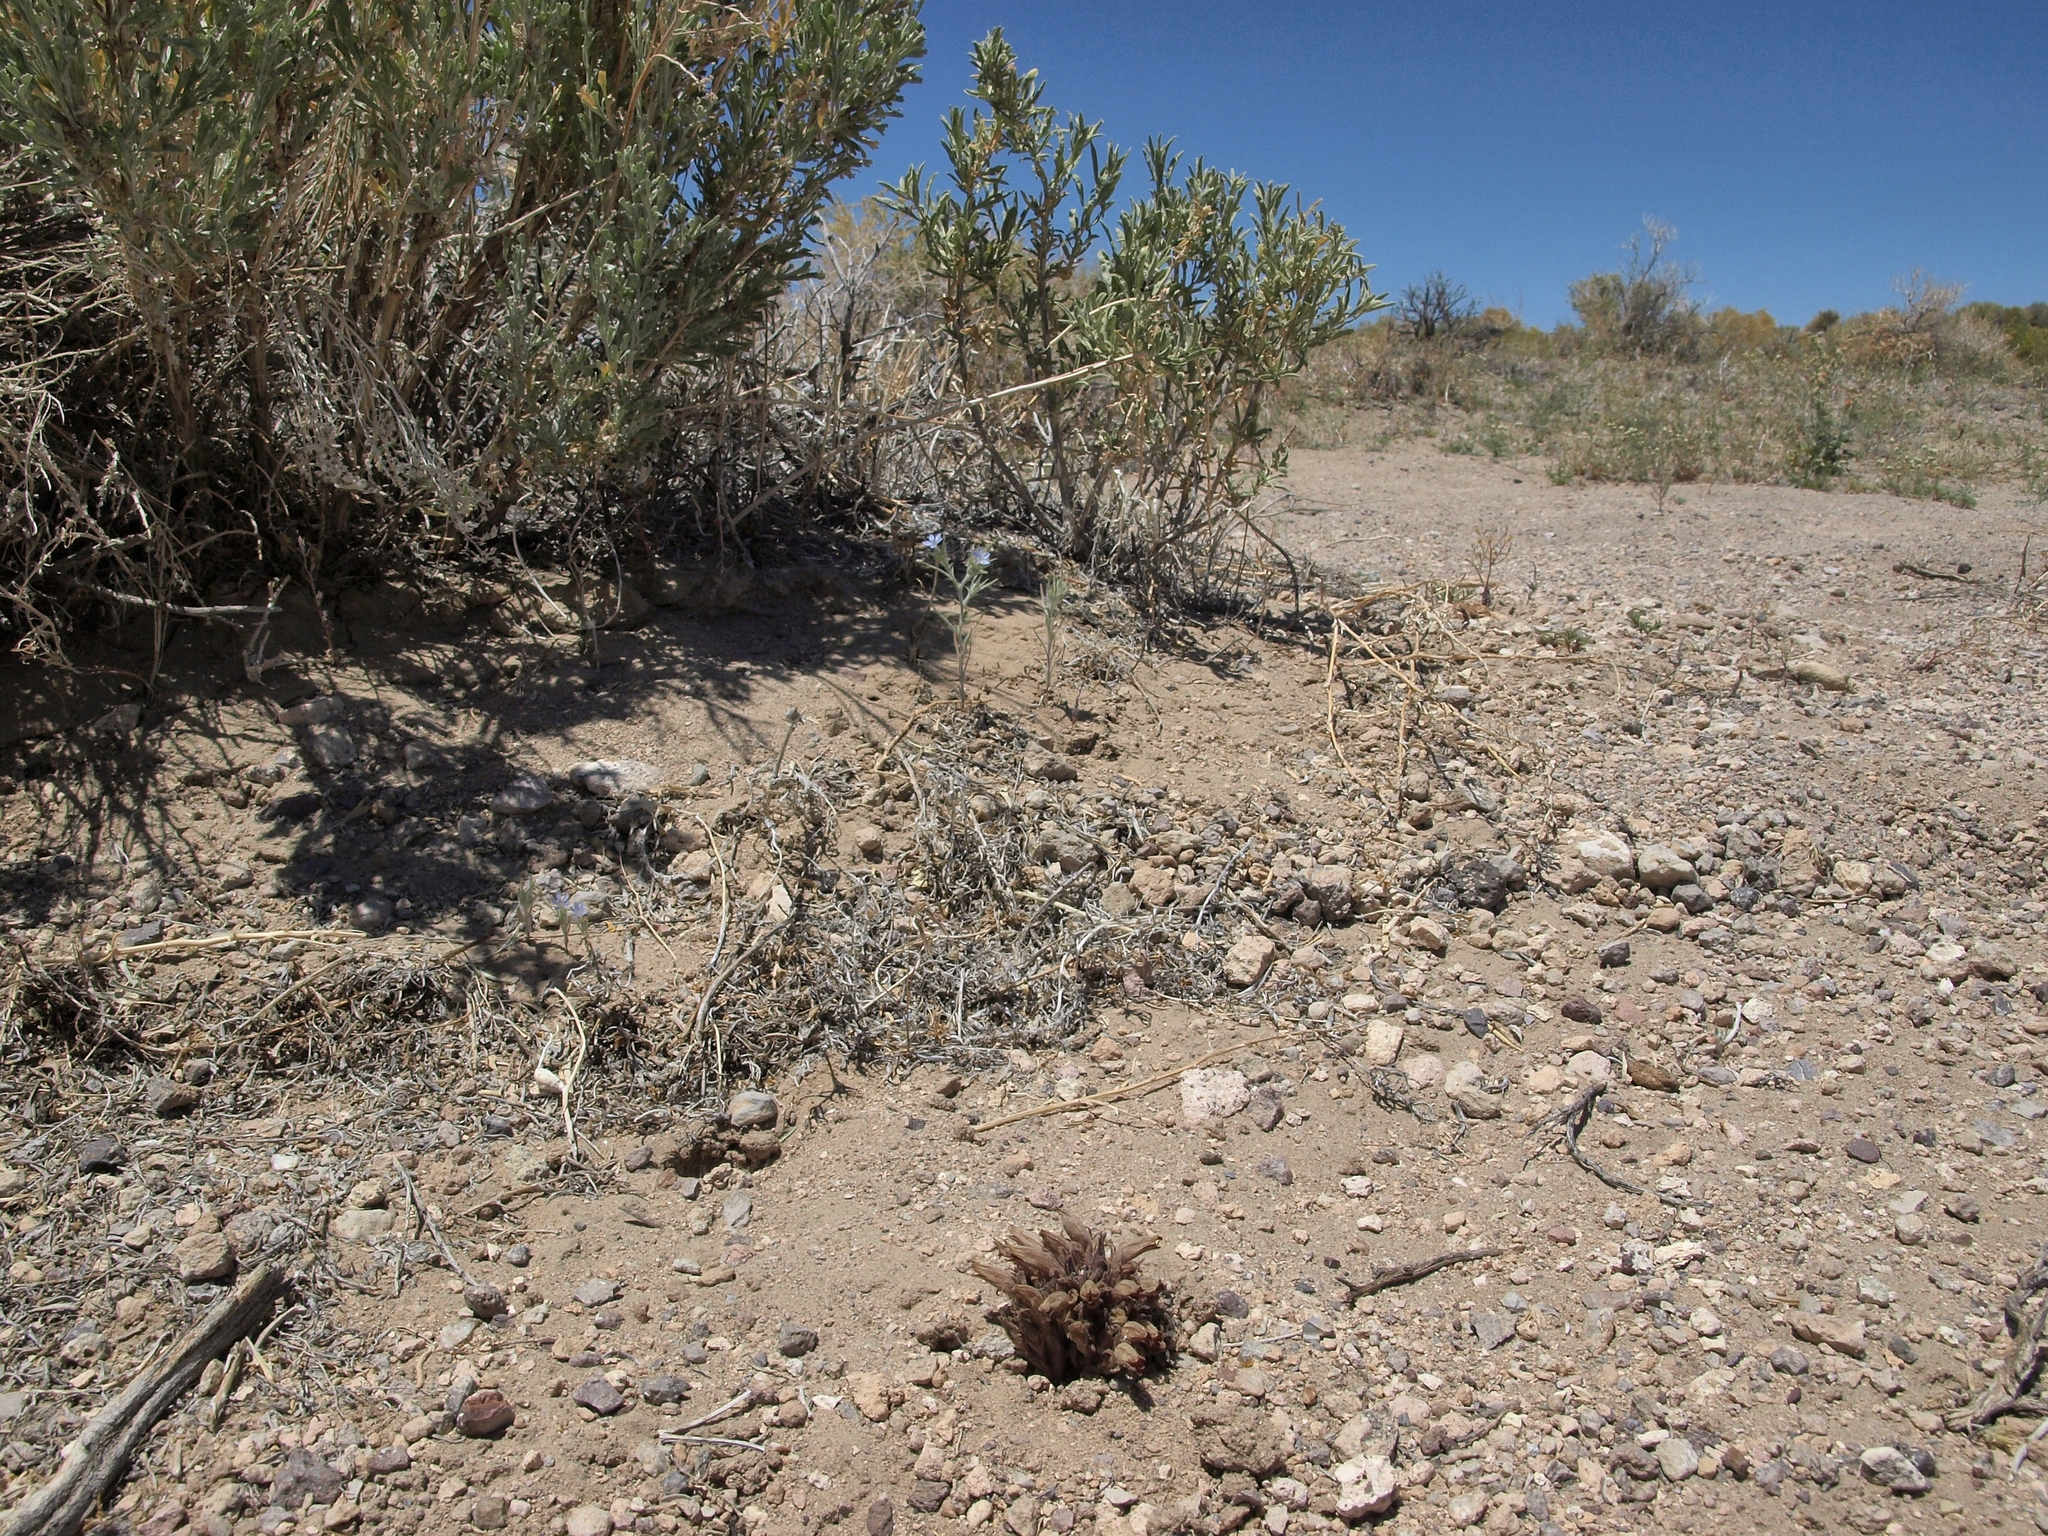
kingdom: Plantae
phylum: Tracheophyta
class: Magnoliopsida
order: Lamiales
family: Orobanchaceae
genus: Aphyllon
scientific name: Aphyllon corymbosum
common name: Flat-top broomrape
